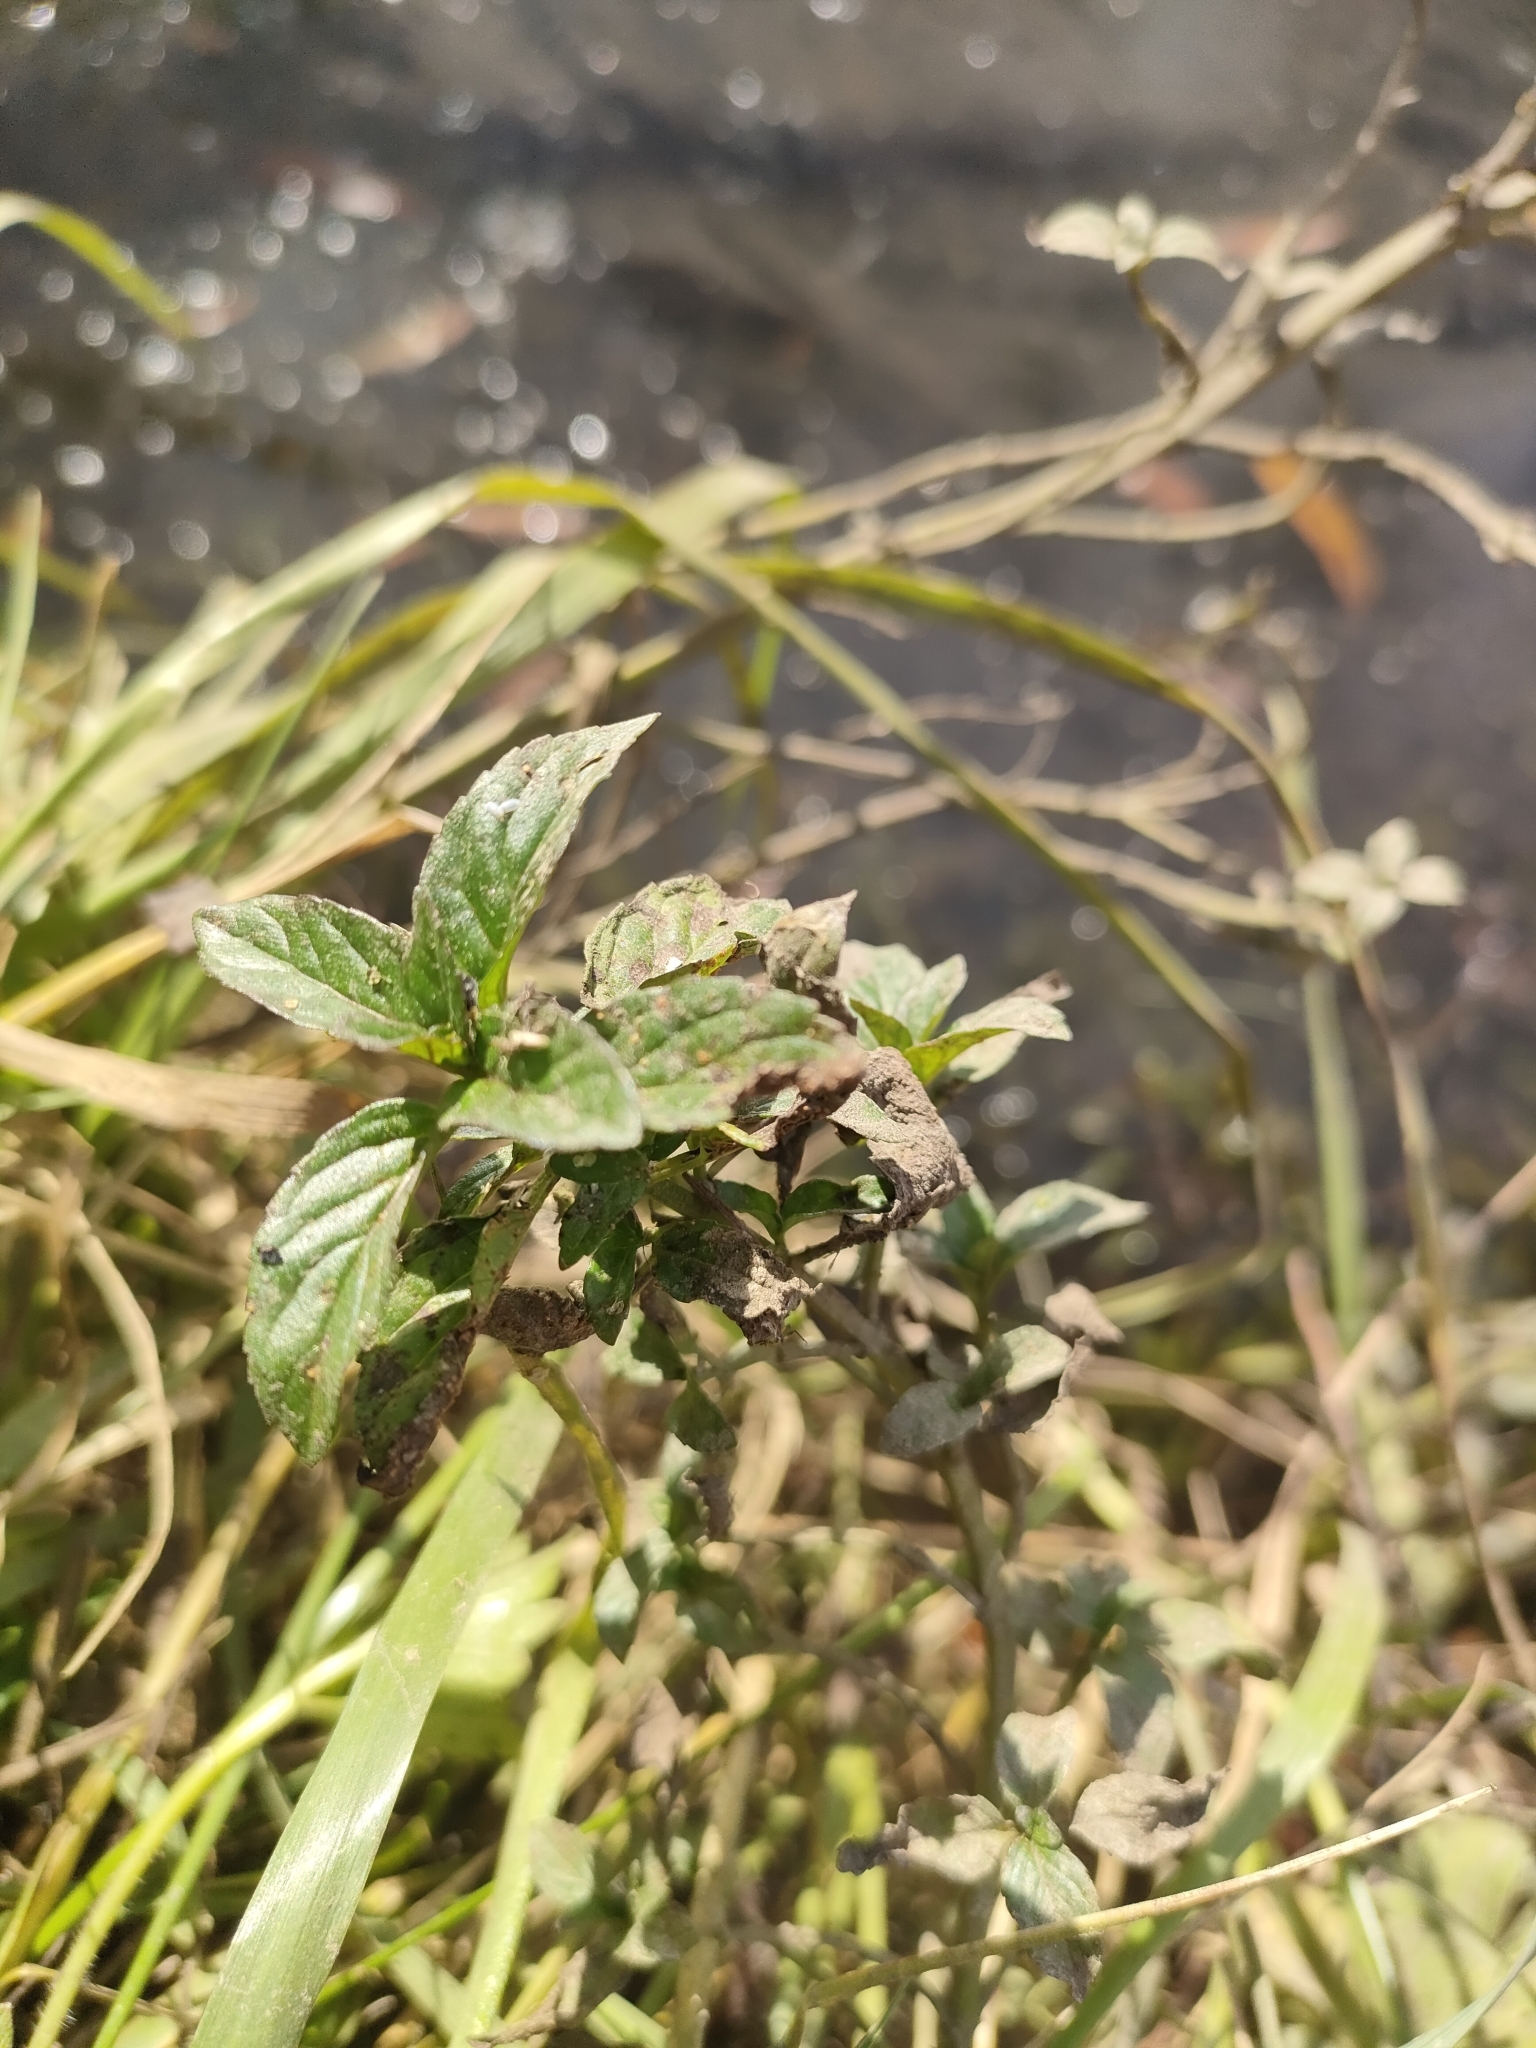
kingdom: Plantae
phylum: Tracheophyta
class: Magnoliopsida
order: Lamiales
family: Lamiaceae
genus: Mentha
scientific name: Mentha spicata
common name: Spearmint
